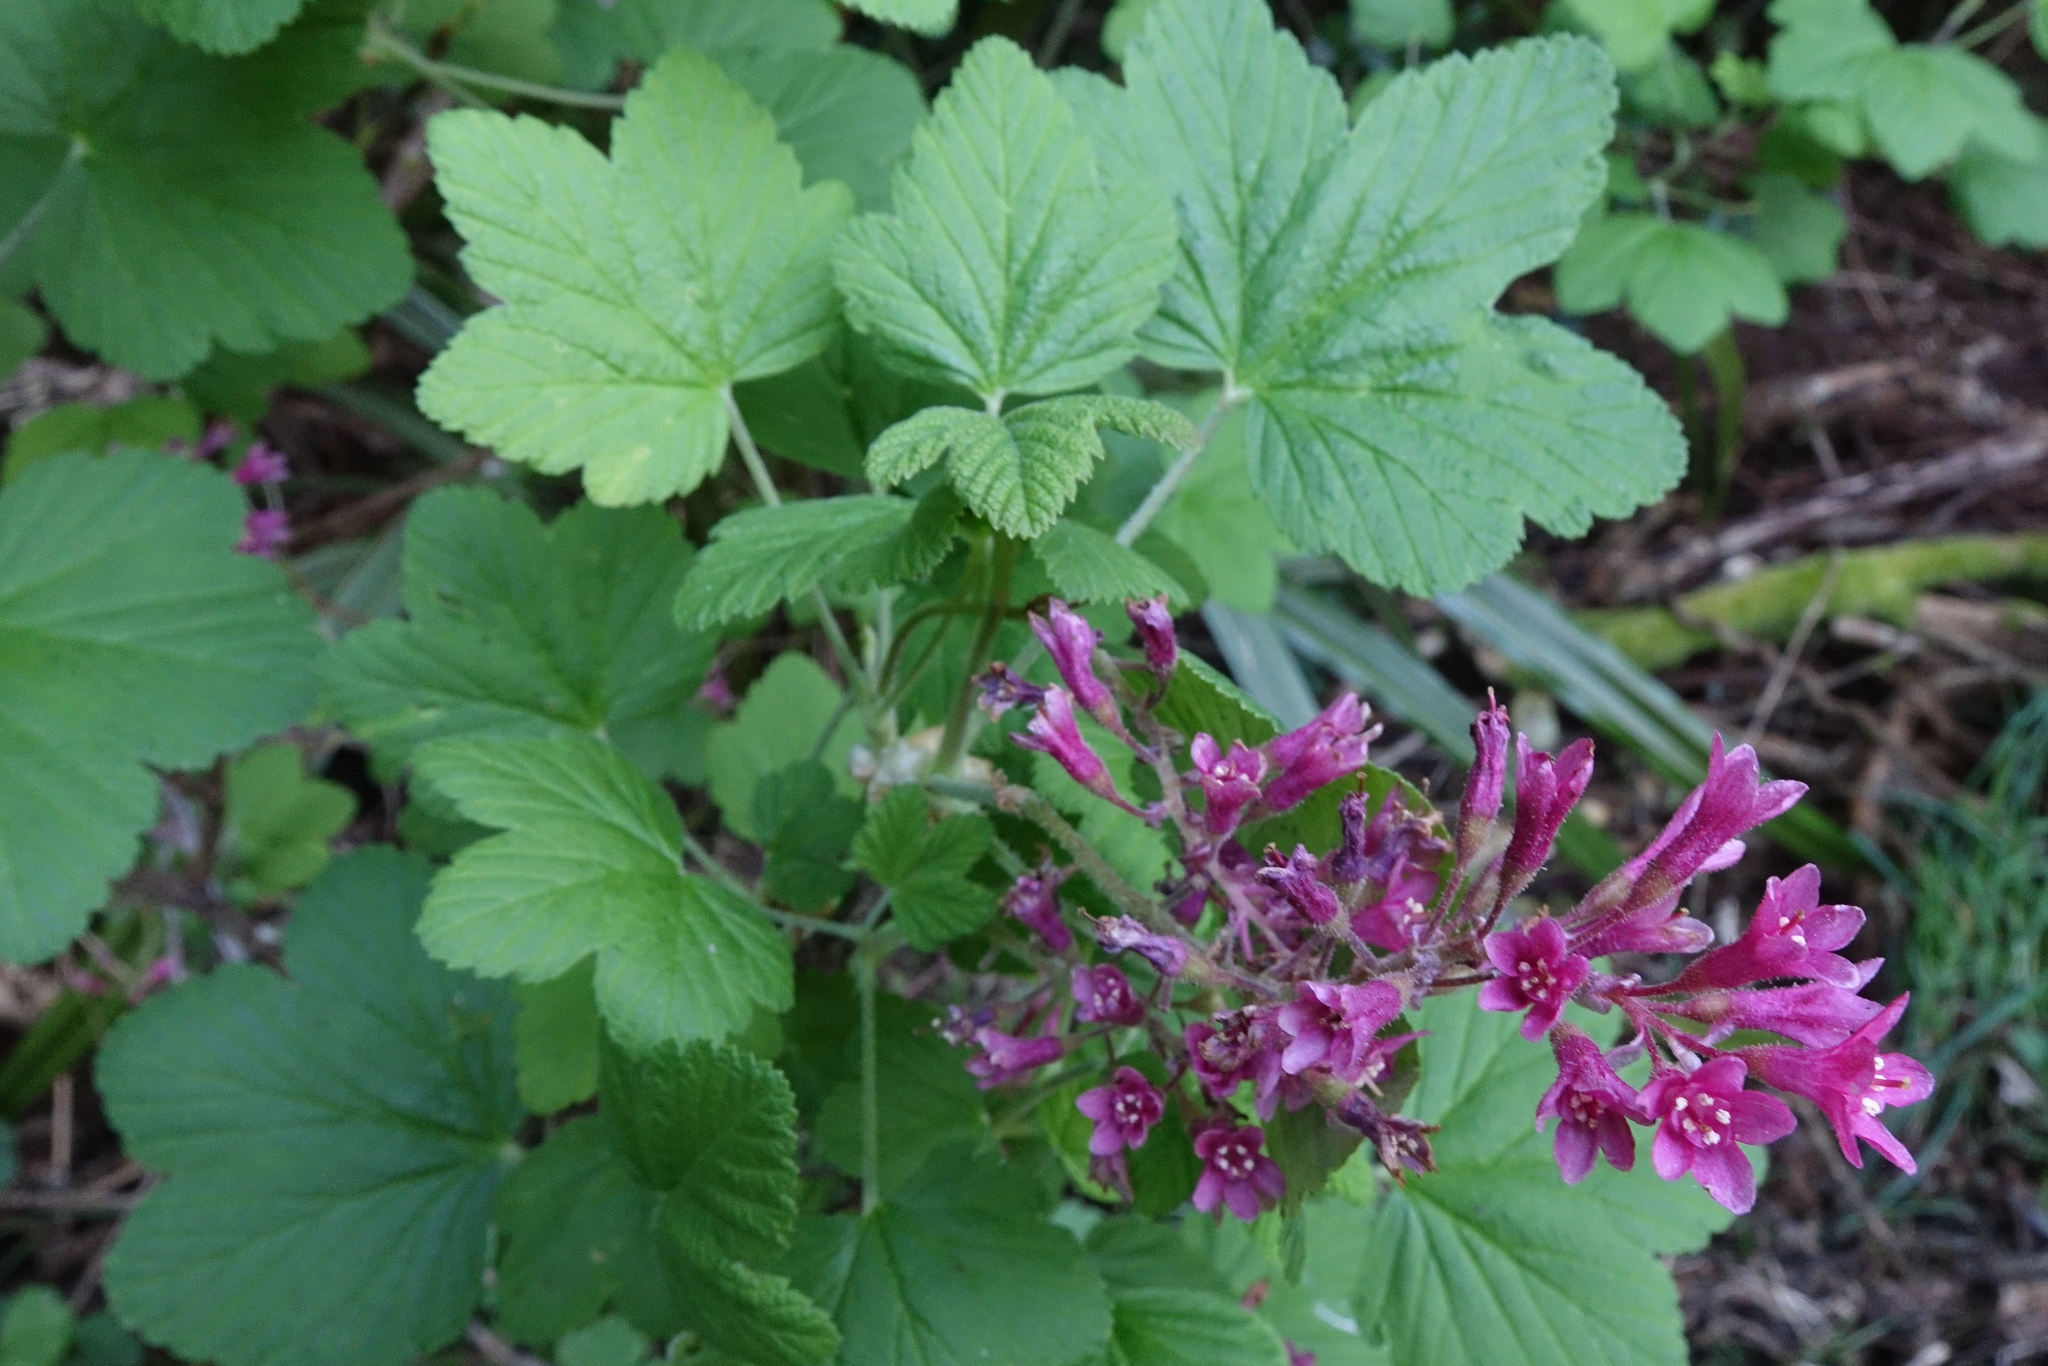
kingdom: Plantae
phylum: Tracheophyta
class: Magnoliopsida
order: Saxifragales
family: Grossulariaceae
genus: Ribes
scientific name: Ribes sanguineum
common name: Flowering currant
